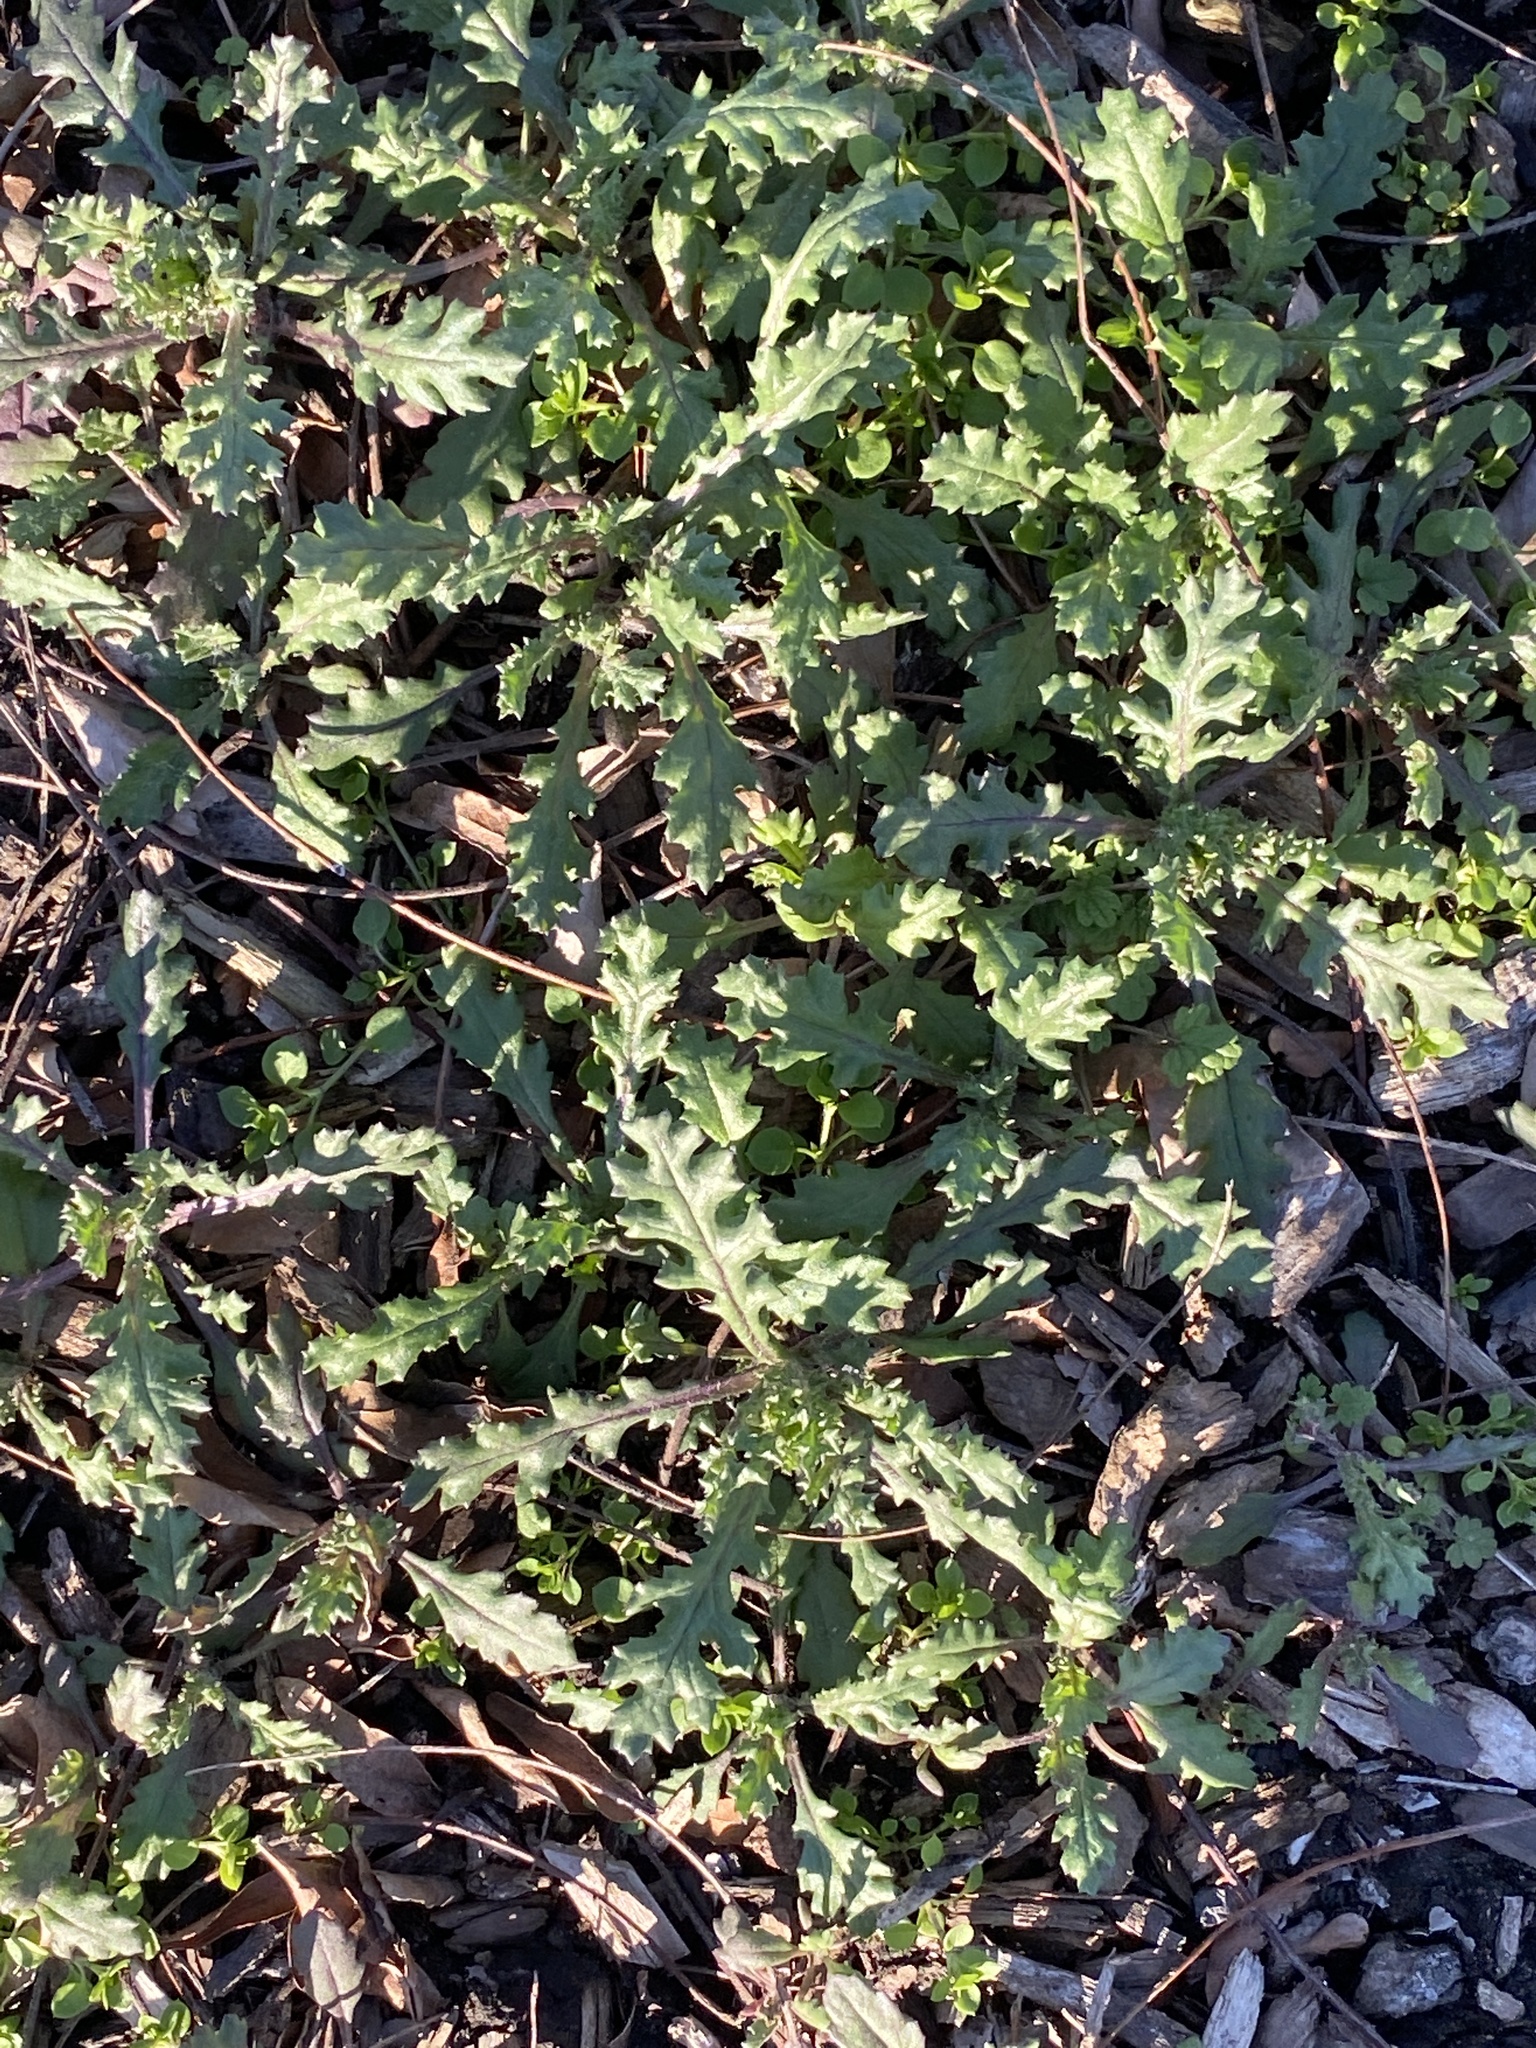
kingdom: Plantae
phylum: Tracheophyta
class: Magnoliopsida
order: Asterales
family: Asteraceae
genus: Senecio
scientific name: Senecio vulgaris
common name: Old-man-in-the-spring
